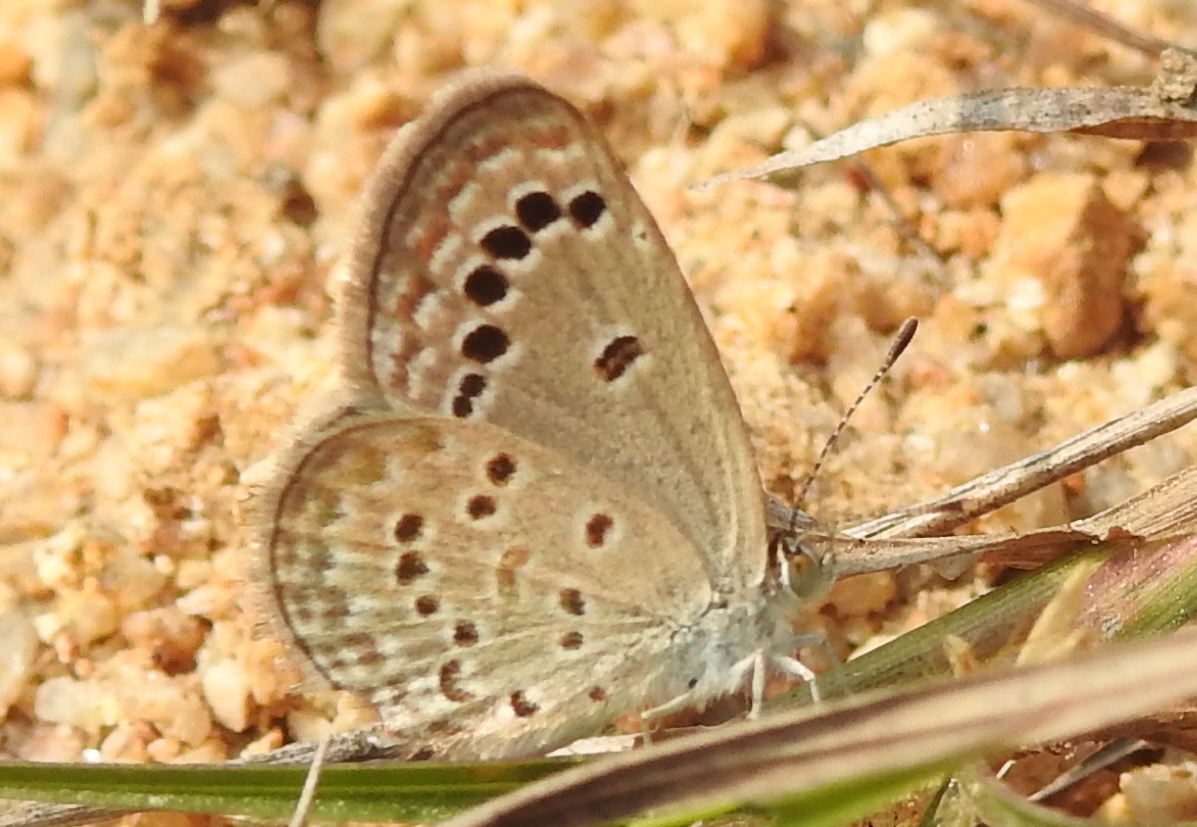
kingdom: Animalia
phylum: Arthropoda
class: Insecta
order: Lepidoptera
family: Lycaenidae
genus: Zizina
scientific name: Zizina otis
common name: Lesser grass blue
